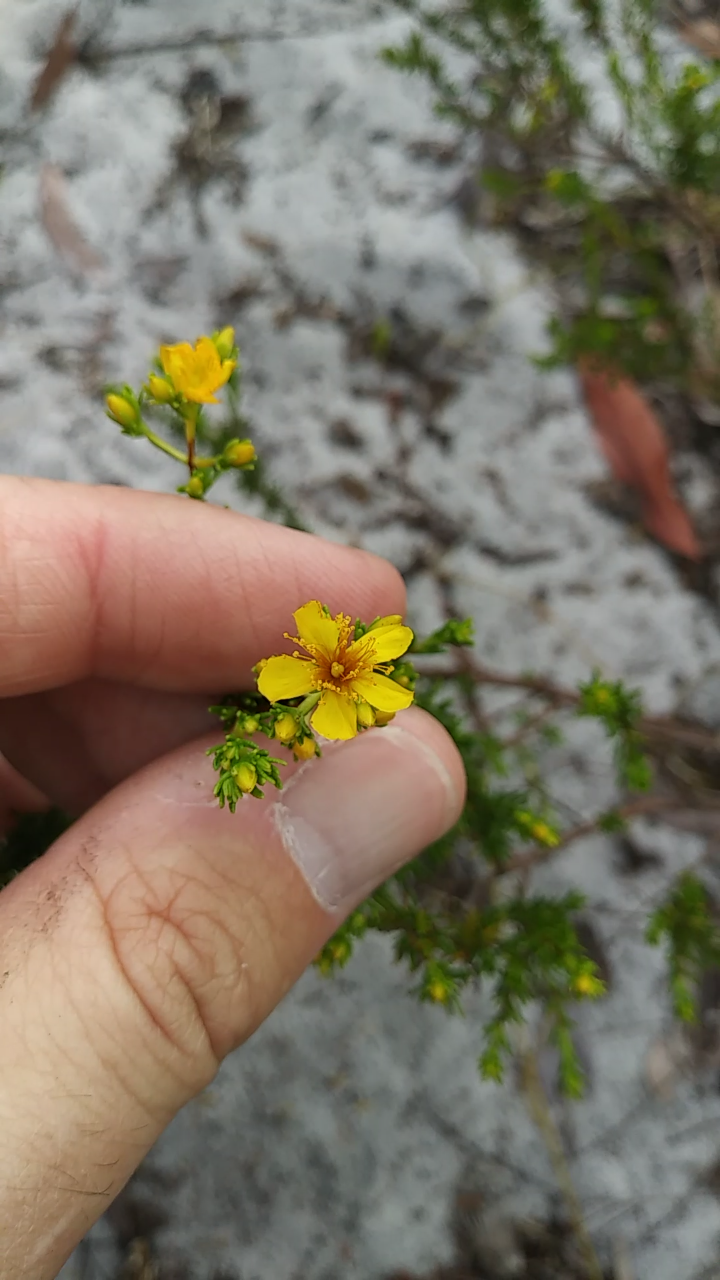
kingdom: Plantae
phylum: Tracheophyta
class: Magnoliopsida
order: Malpighiales
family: Hypericaceae
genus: Hypericum
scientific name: Hypericum tenuifolium
